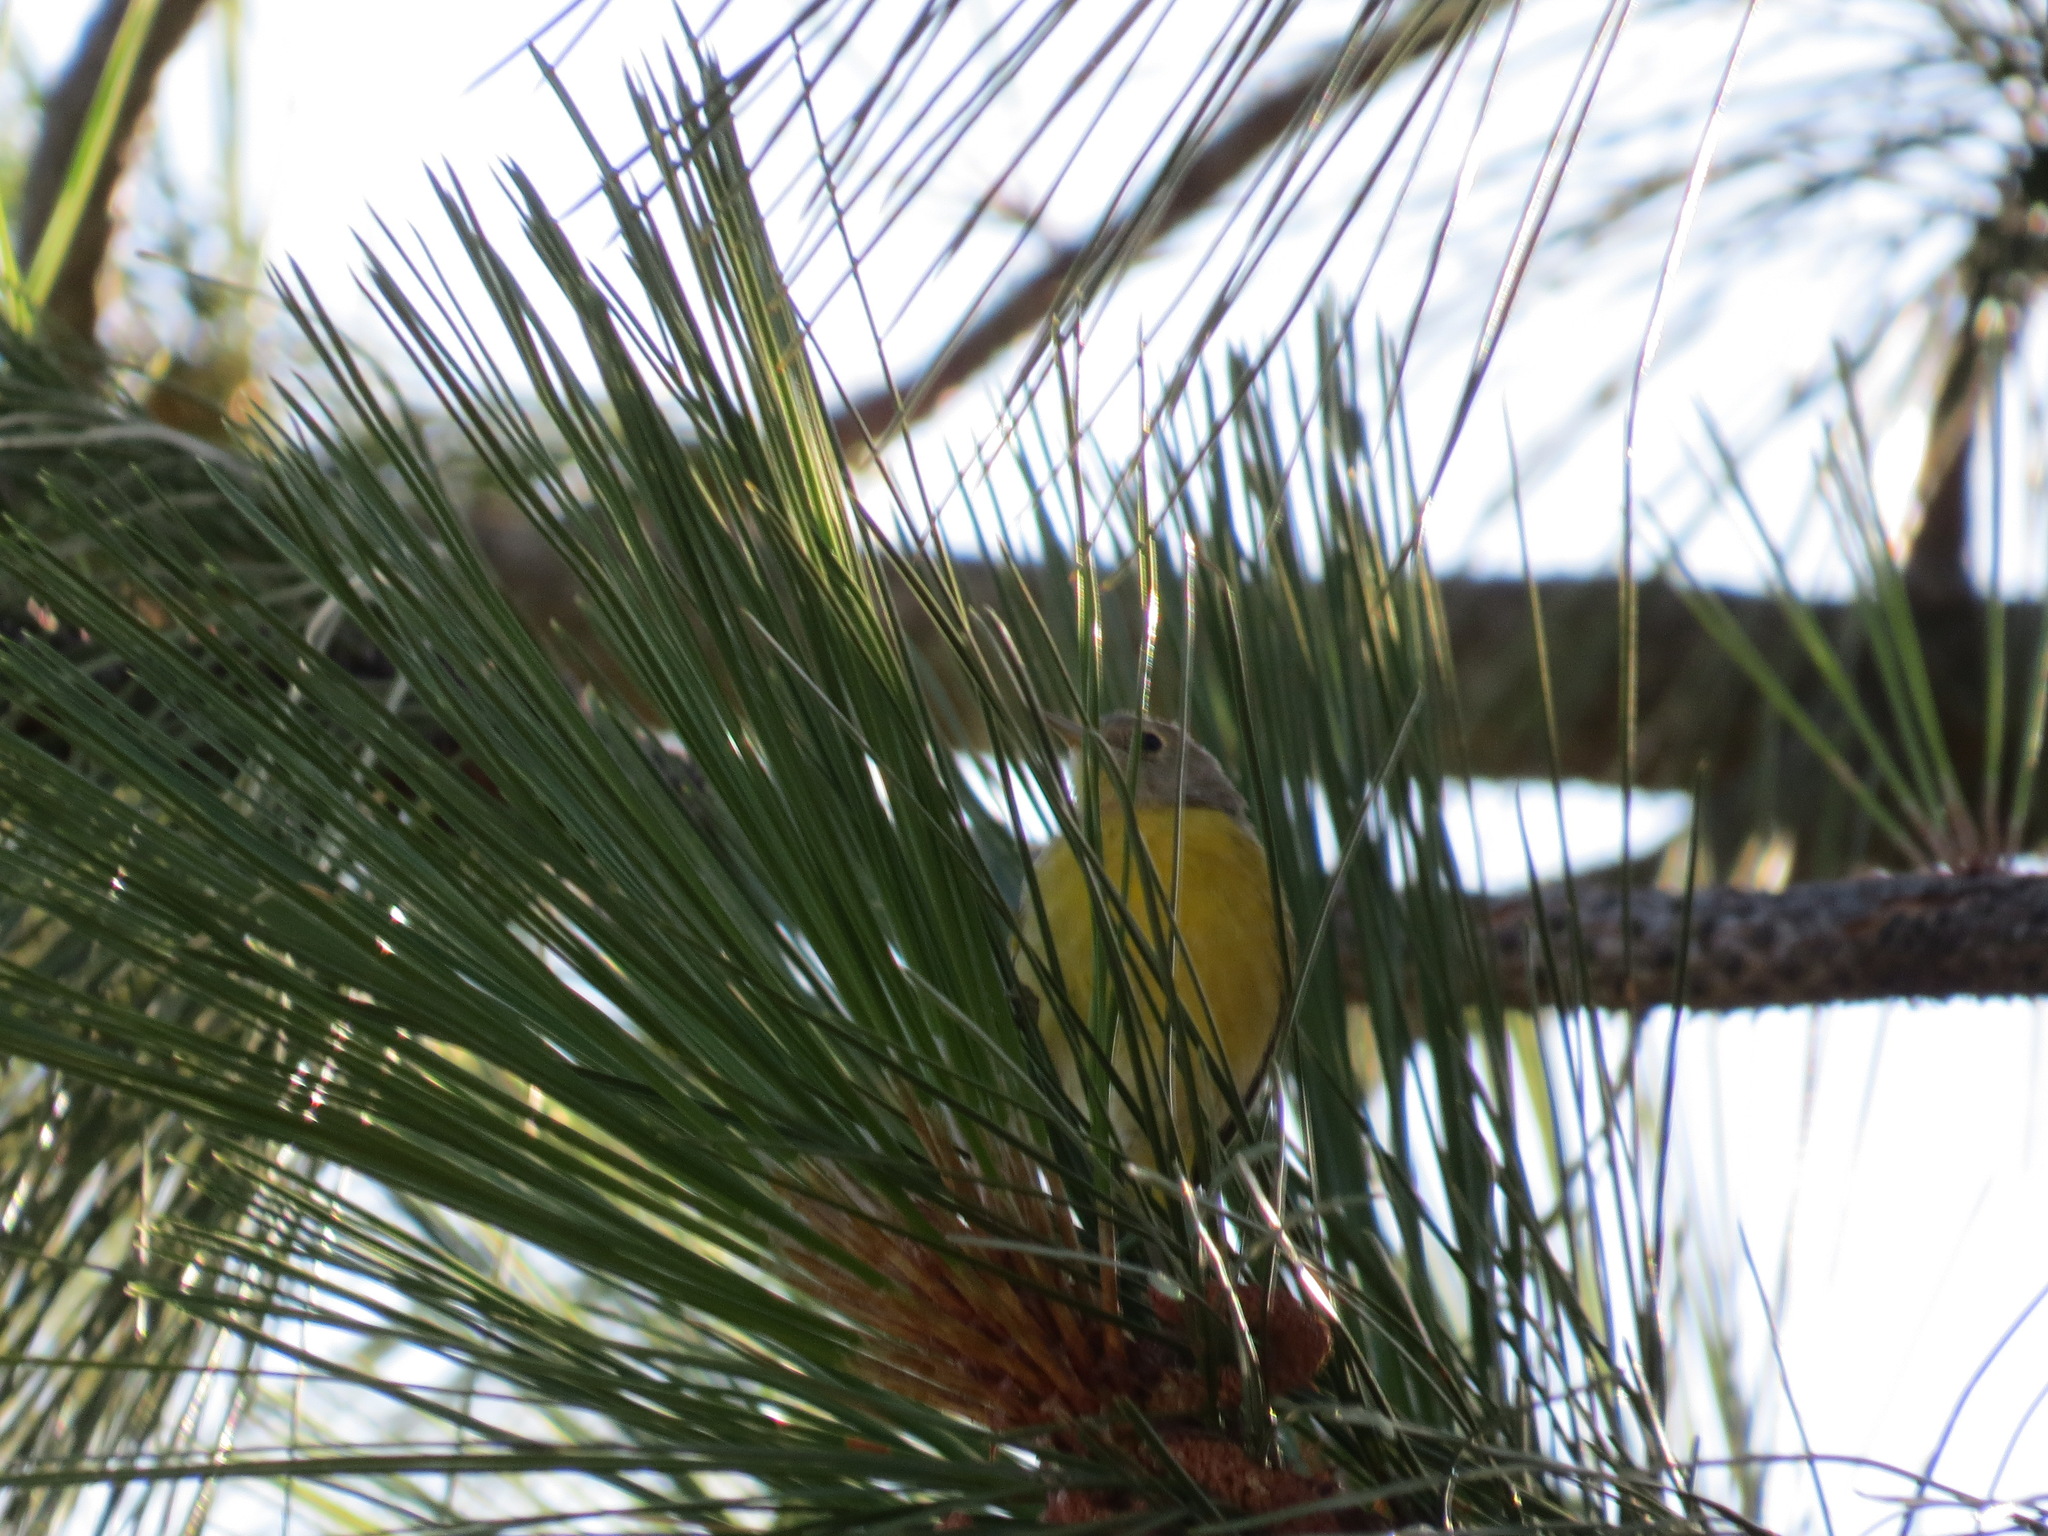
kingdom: Animalia
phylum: Chordata
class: Aves
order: Passeriformes
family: Parulidae
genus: Leiothlypis
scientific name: Leiothlypis ruficapilla
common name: Nashville warbler
